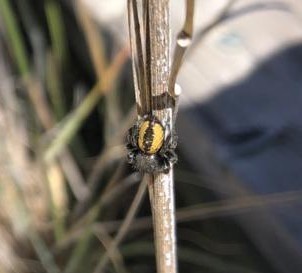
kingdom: Animalia
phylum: Arthropoda
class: Arachnida
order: Araneae
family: Salticidae
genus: Phidippus
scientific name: Phidippus purpuratus
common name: Marbled purple jumping spider
